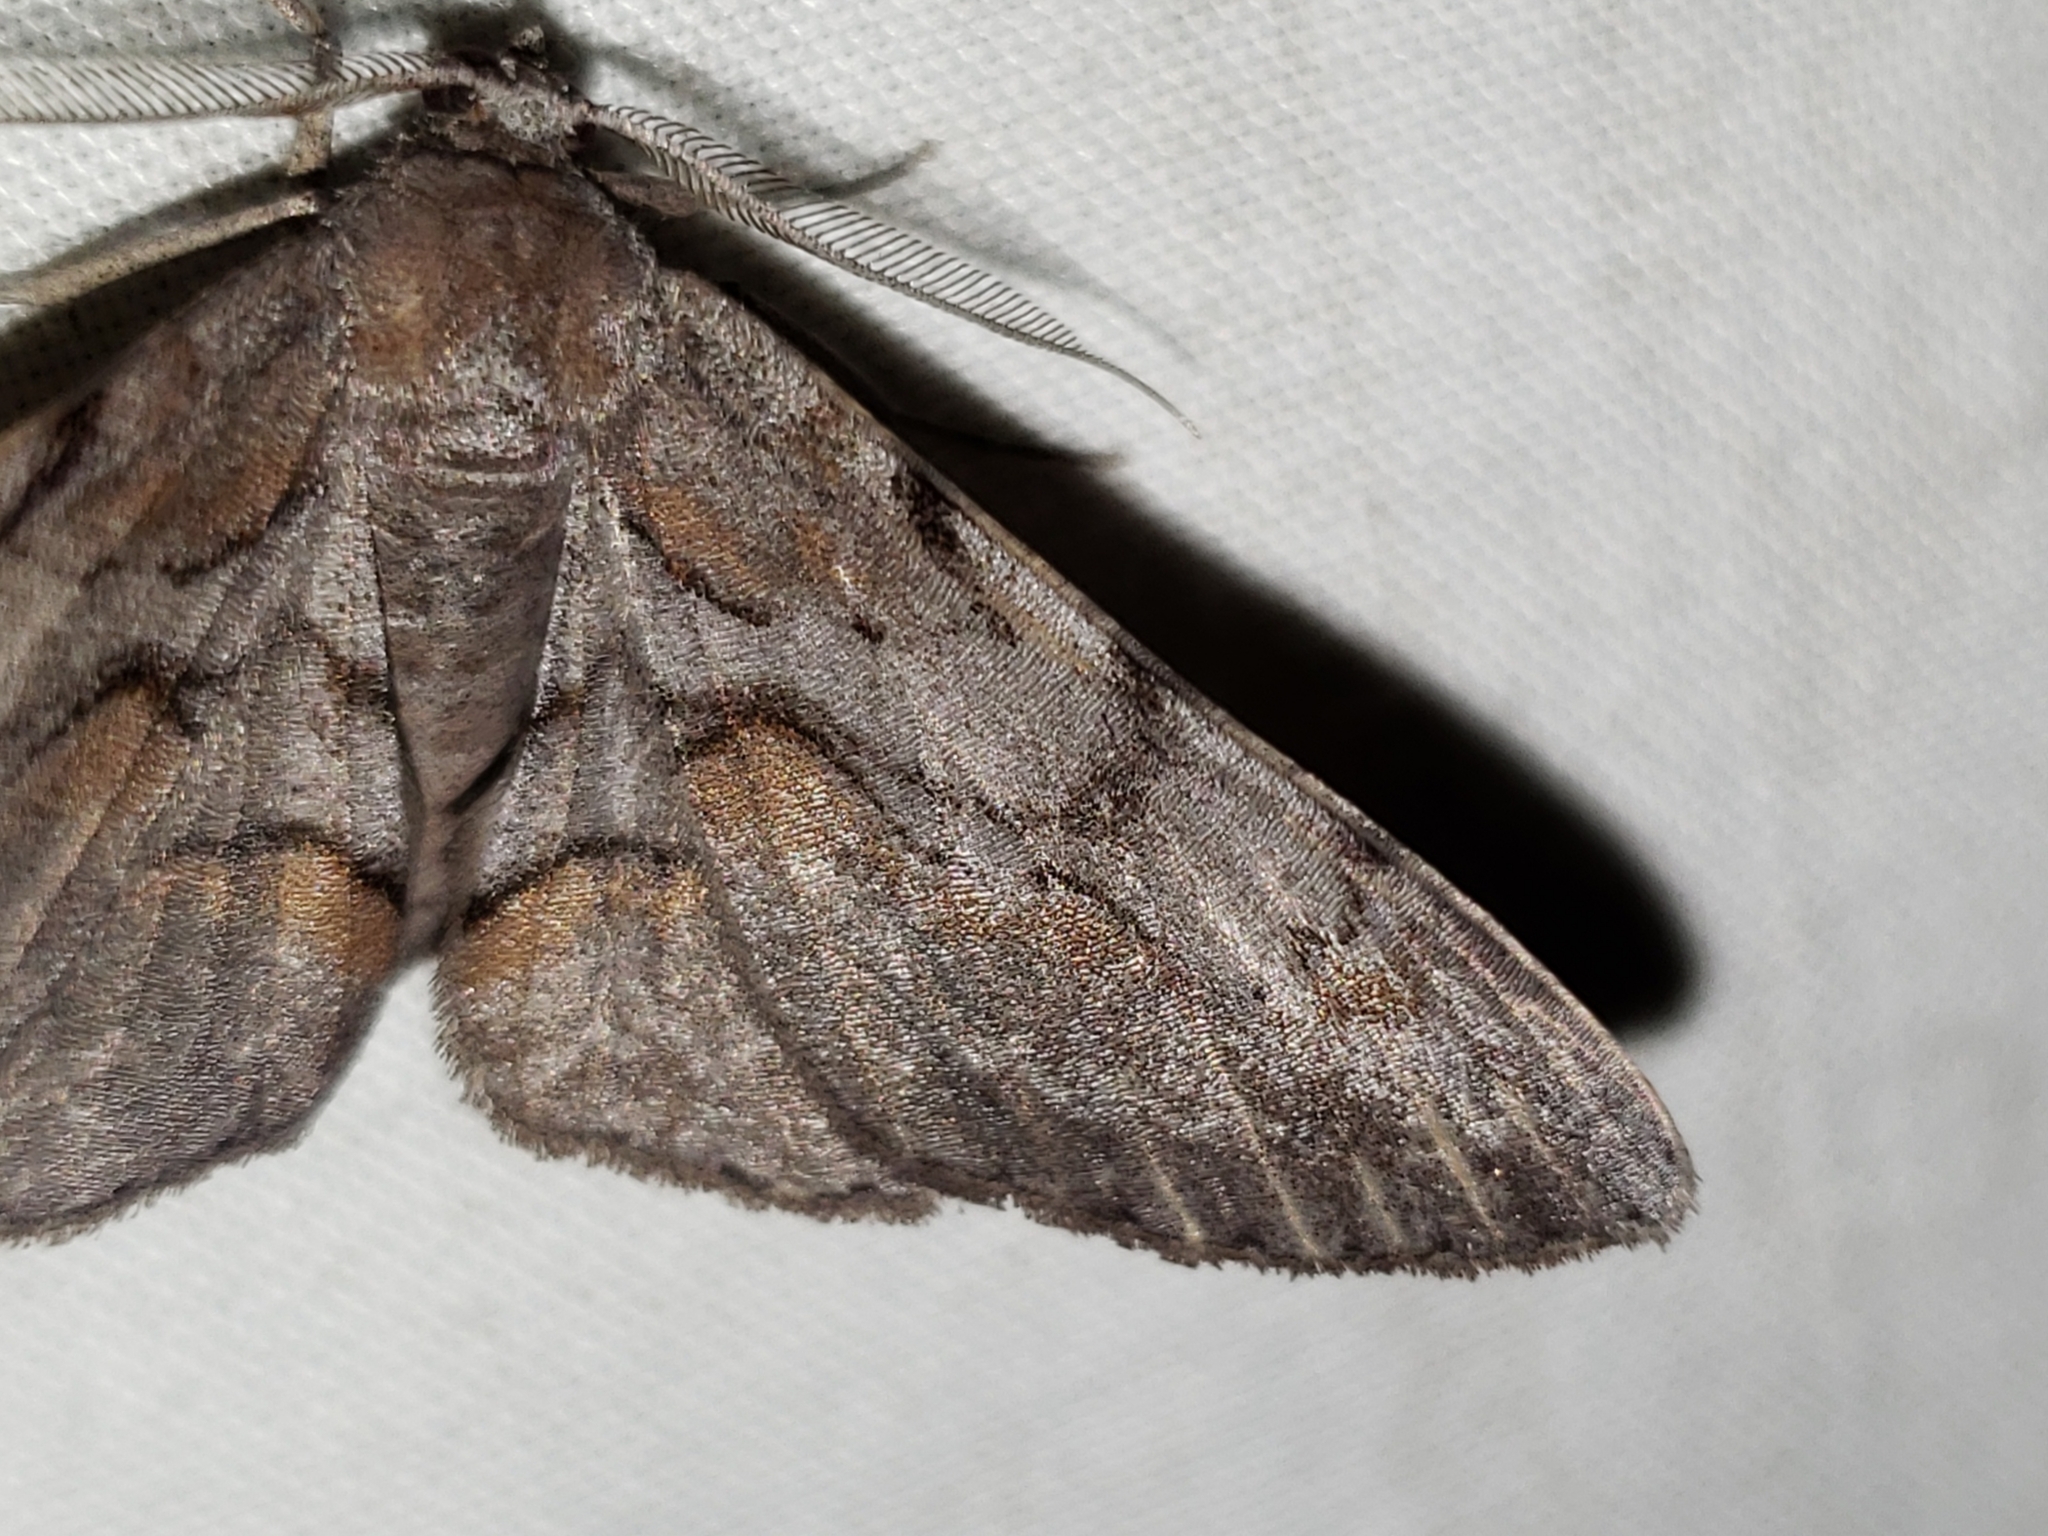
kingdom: Animalia
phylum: Arthropoda
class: Insecta
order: Lepidoptera
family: Geometridae
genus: Iridopsis
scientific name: Iridopsis vellivolata
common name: Large purplish gray
